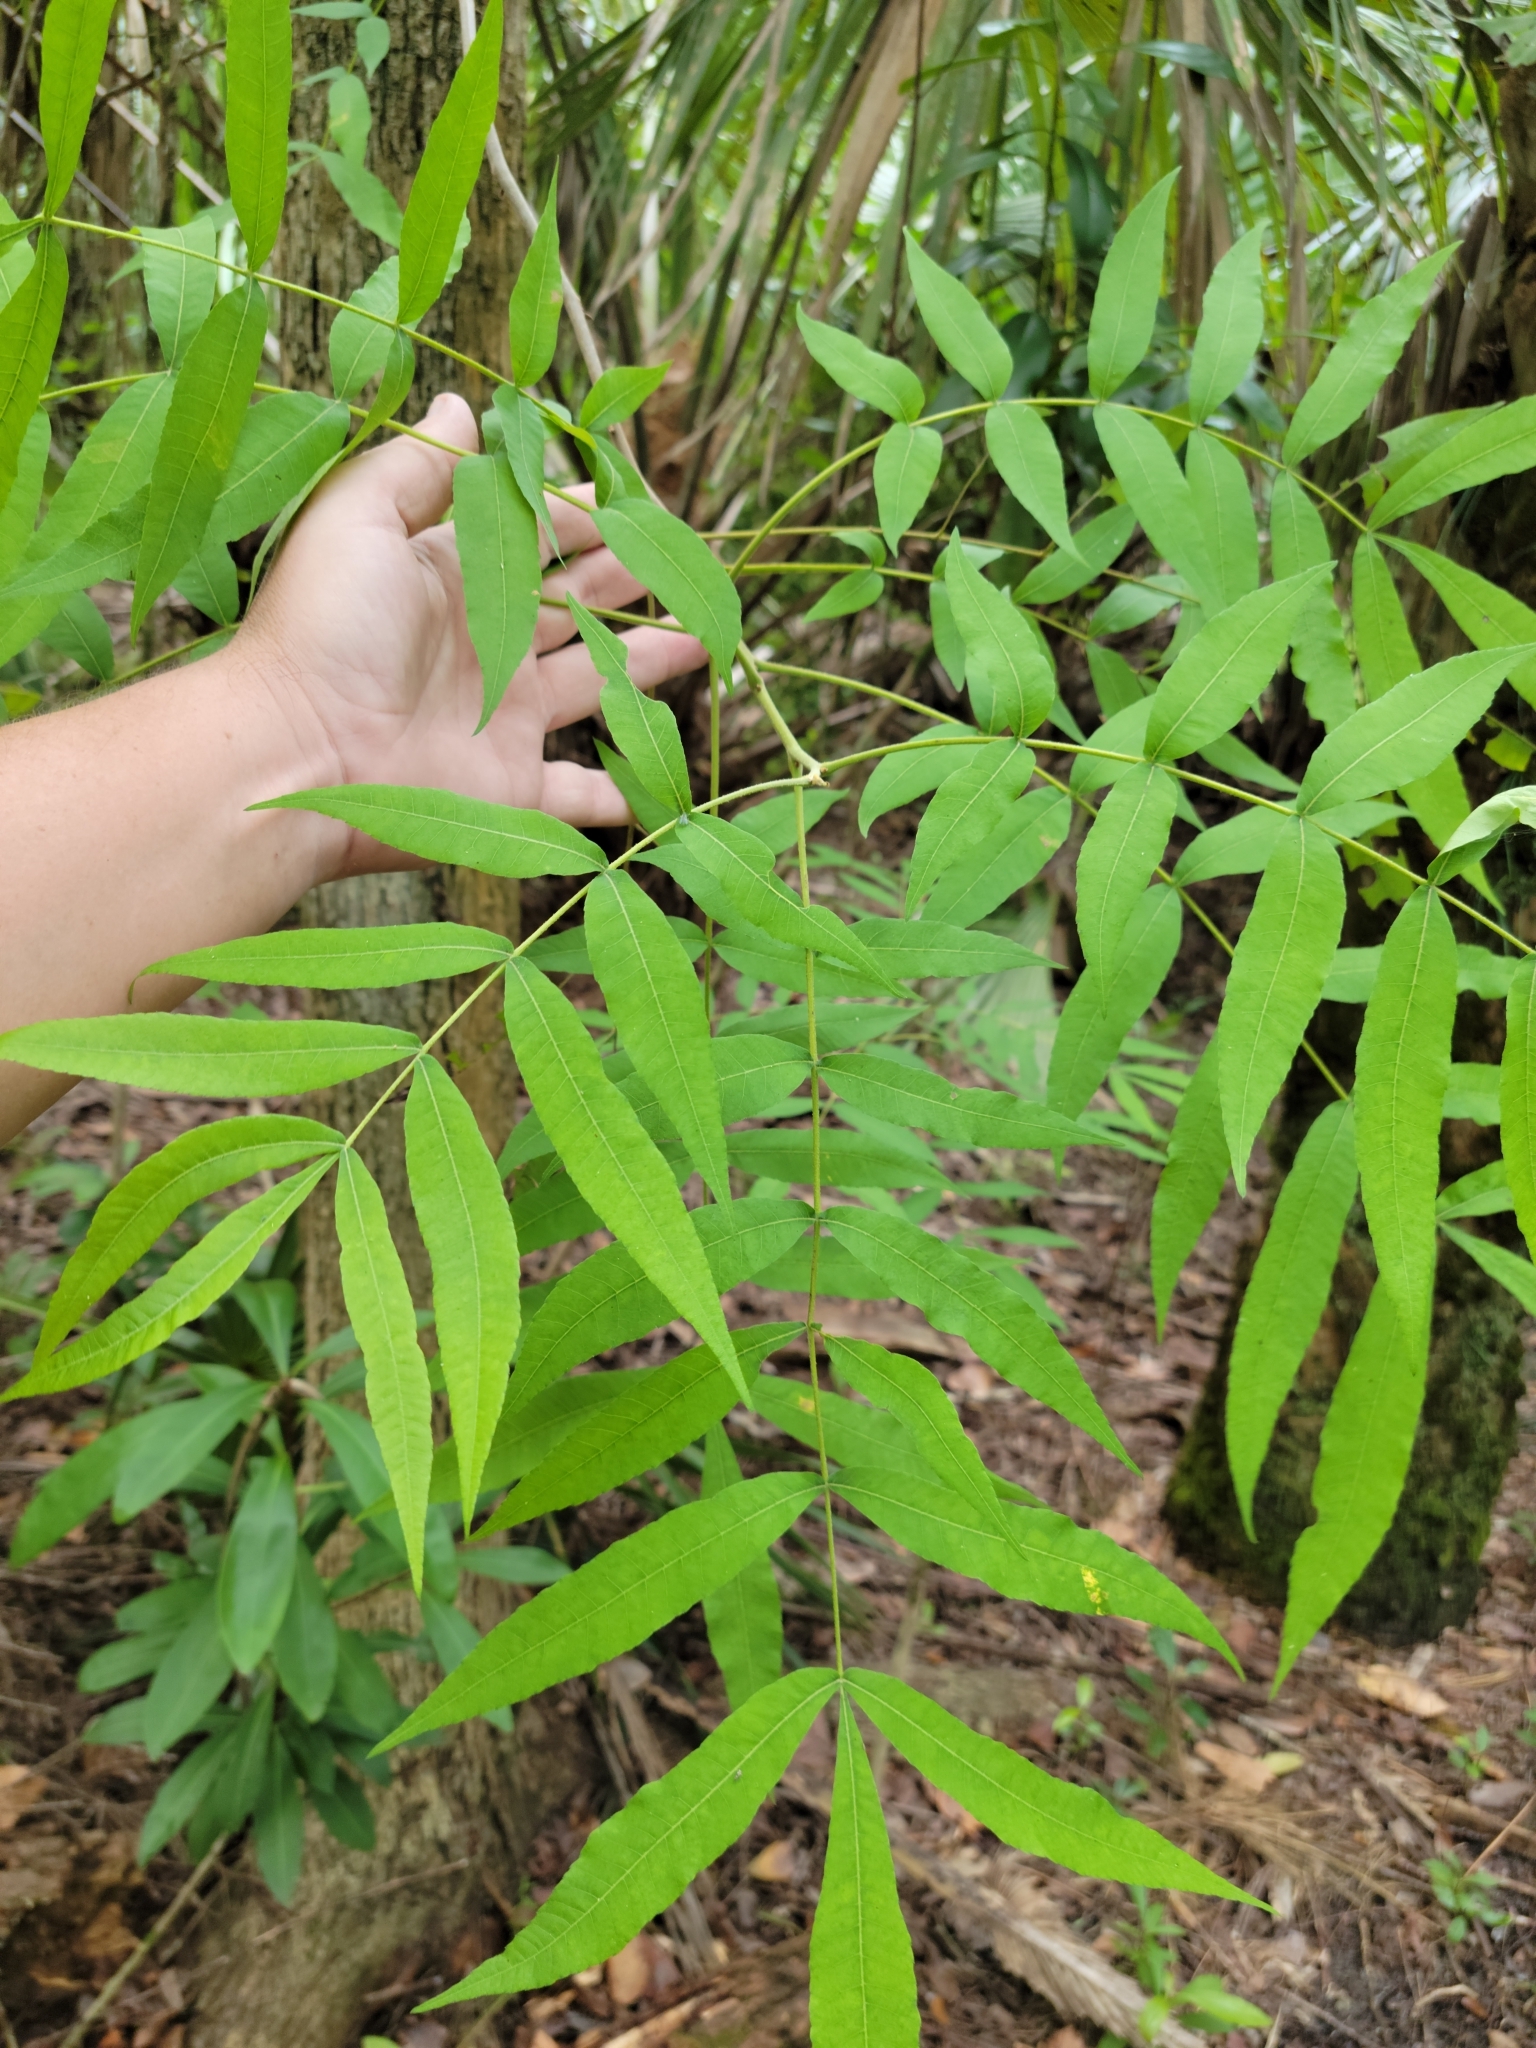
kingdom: Plantae
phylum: Tracheophyta
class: Magnoliopsida
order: Fagales
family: Juglandaceae
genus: Carya
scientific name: Carya aquatica
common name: Water hickory
